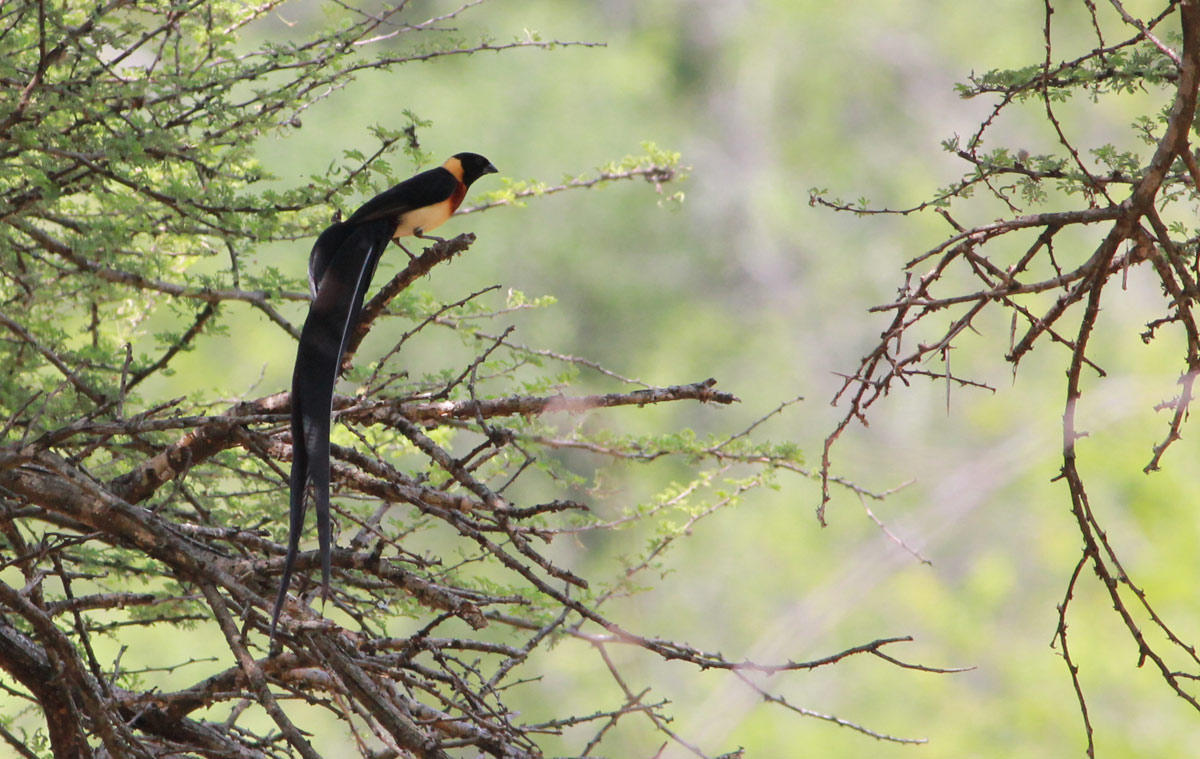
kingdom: Animalia
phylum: Chordata
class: Aves
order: Passeriformes
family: Viduidae
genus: Vidua
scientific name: Vidua paradisaea
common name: Long-tailed paradise whydah
